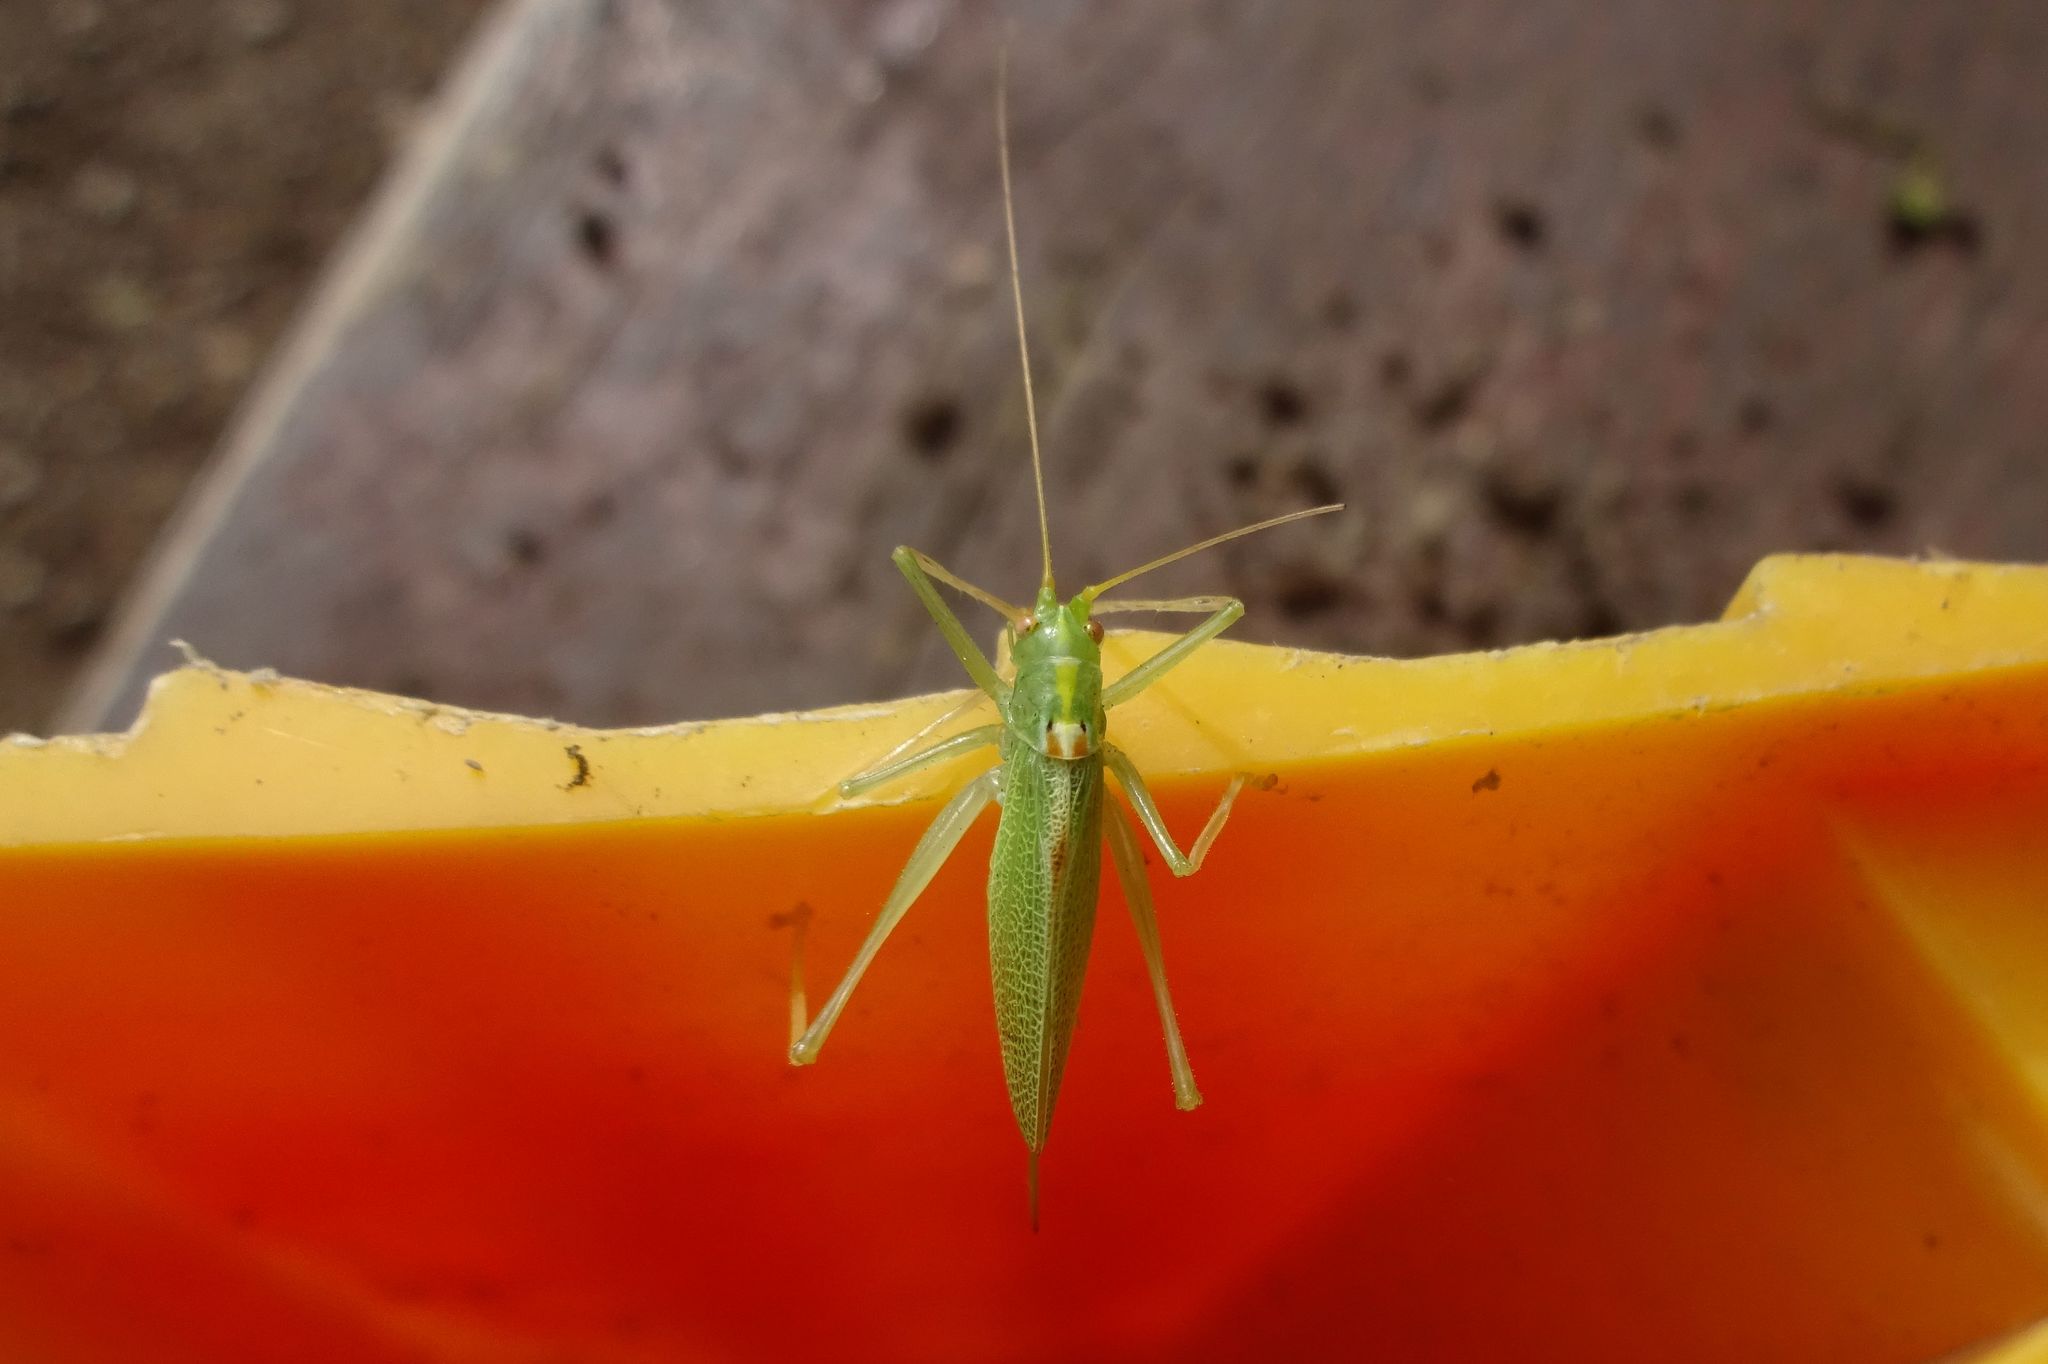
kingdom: Animalia
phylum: Arthropoda
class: Insecta
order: Orthoptera
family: Tettigoniidae
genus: Meconema
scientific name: Meconema thalassinum
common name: Oak bush-cricket
